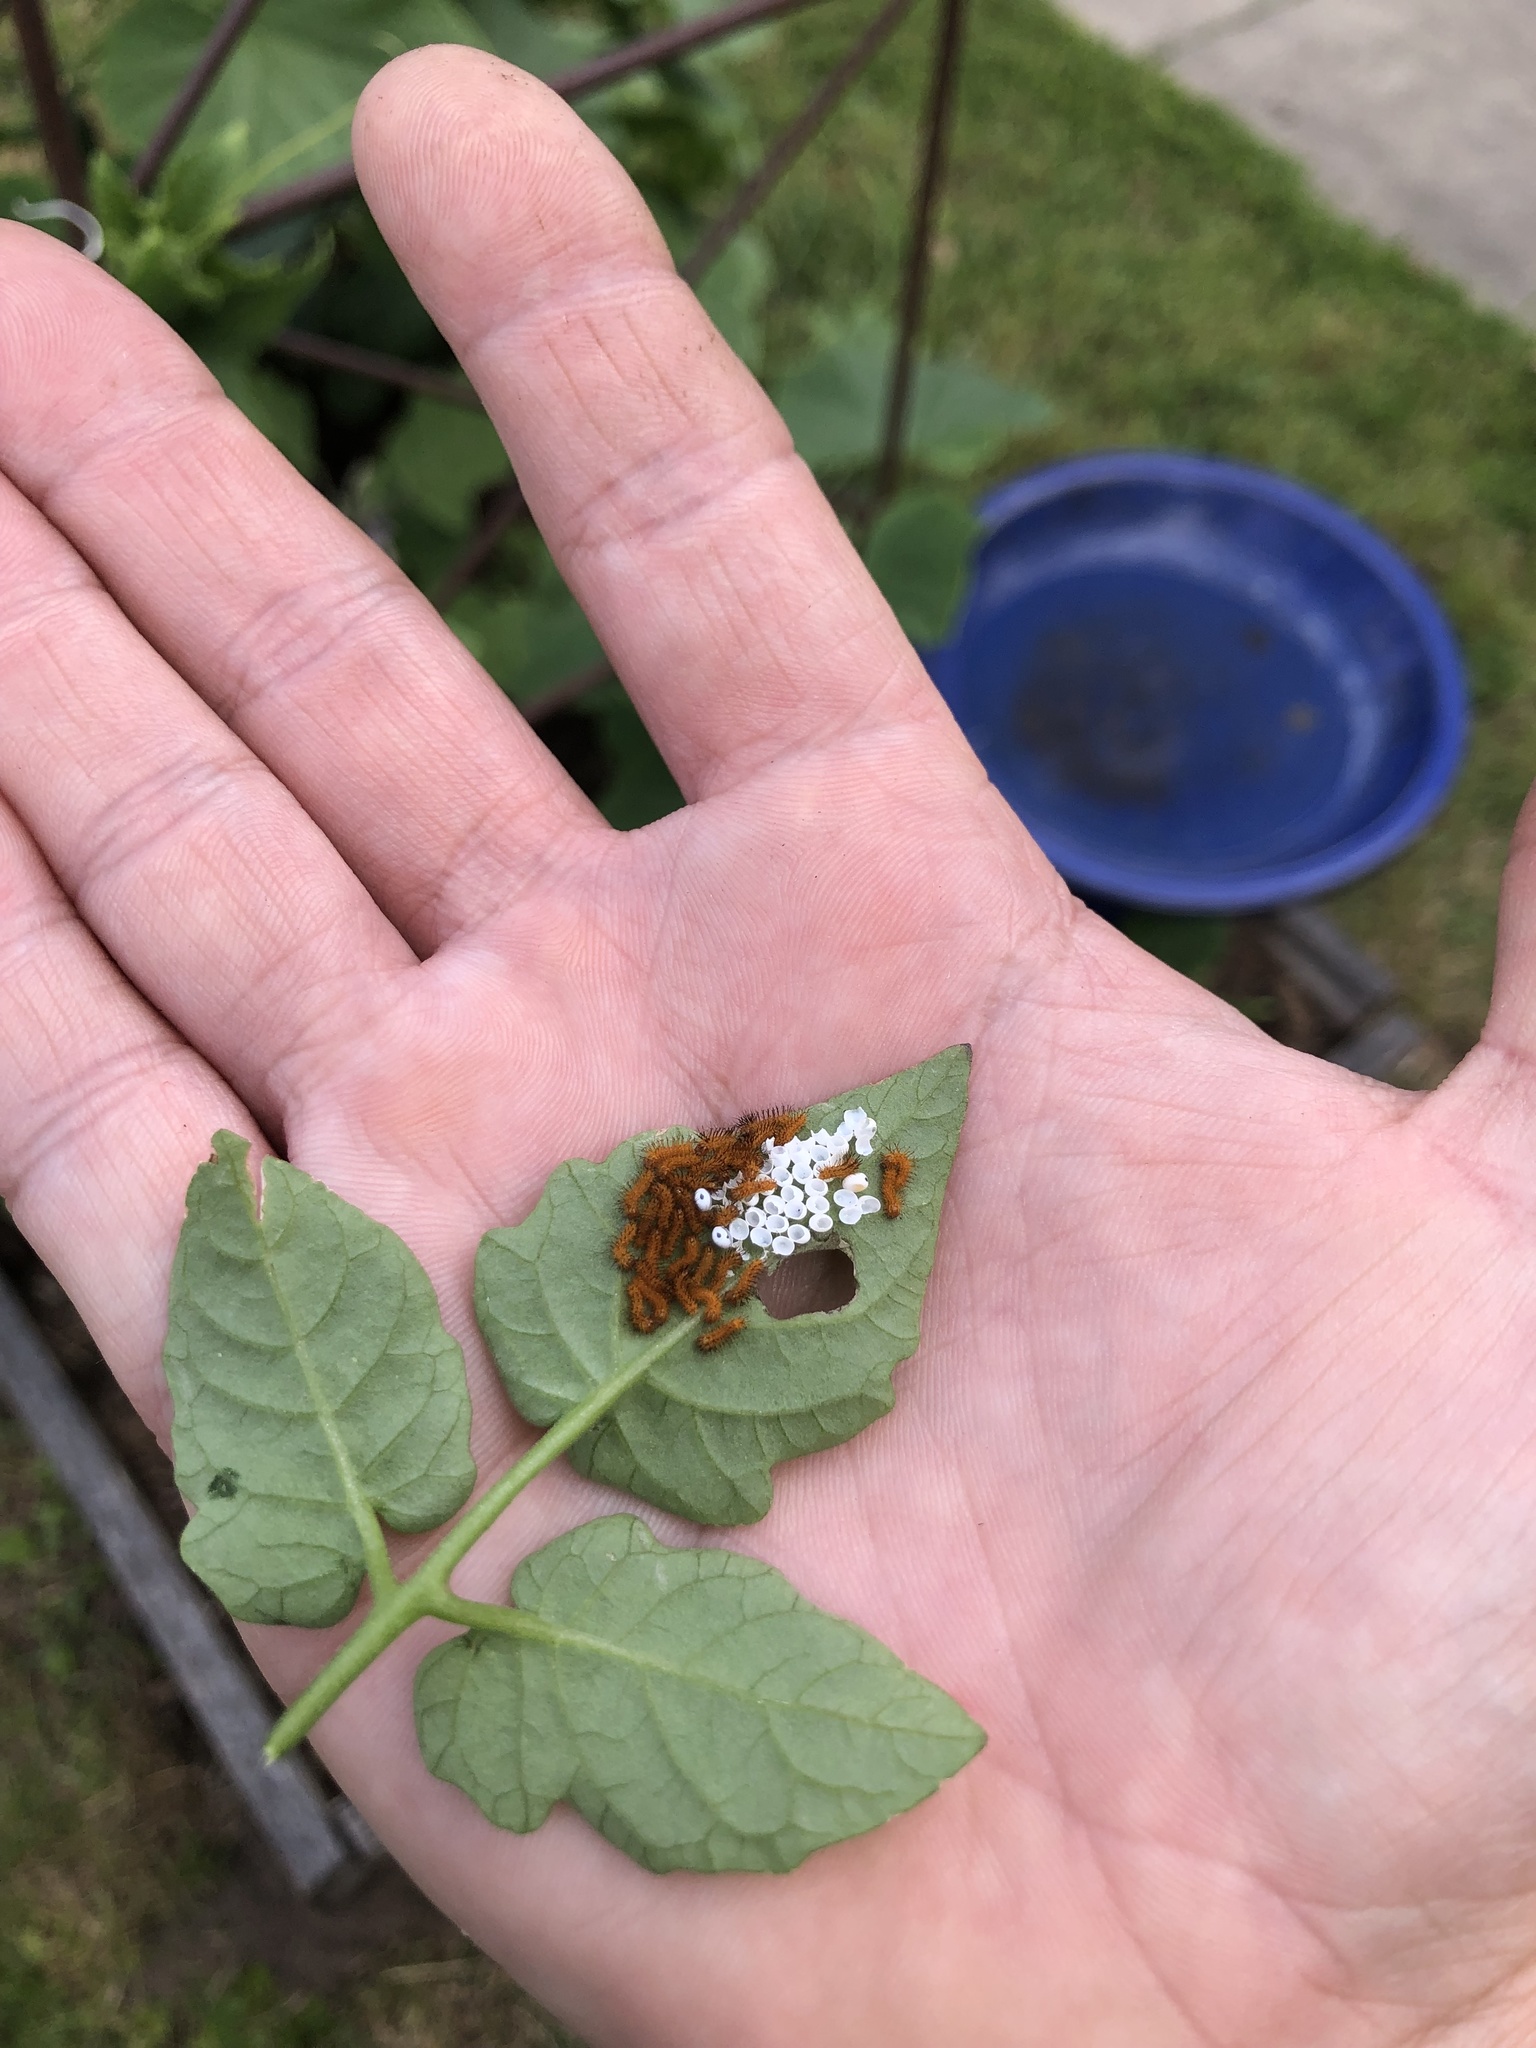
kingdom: Animalia
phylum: Arthropoda
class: Insecta
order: Lepidoptera
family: Saturniidae
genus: Automeris
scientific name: Automeris io
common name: Io moth
